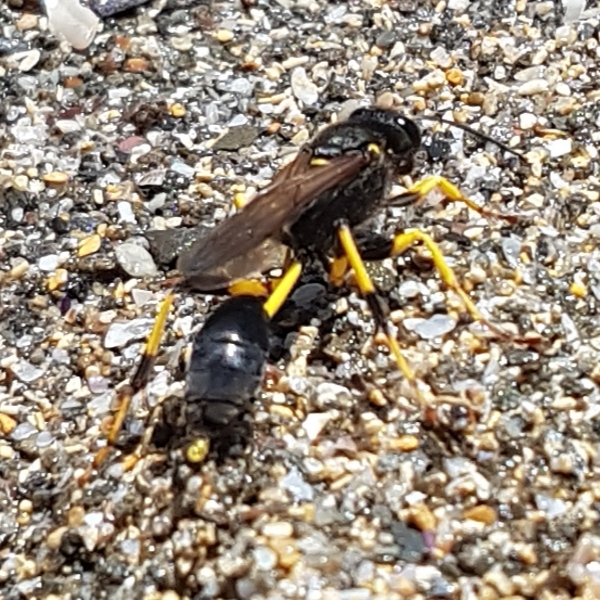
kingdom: Animalia
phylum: Arthropoda
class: Insecta
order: Hymenoptera
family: Sphecidae
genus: Sceliphron
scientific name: Sceliphron destillatorium
